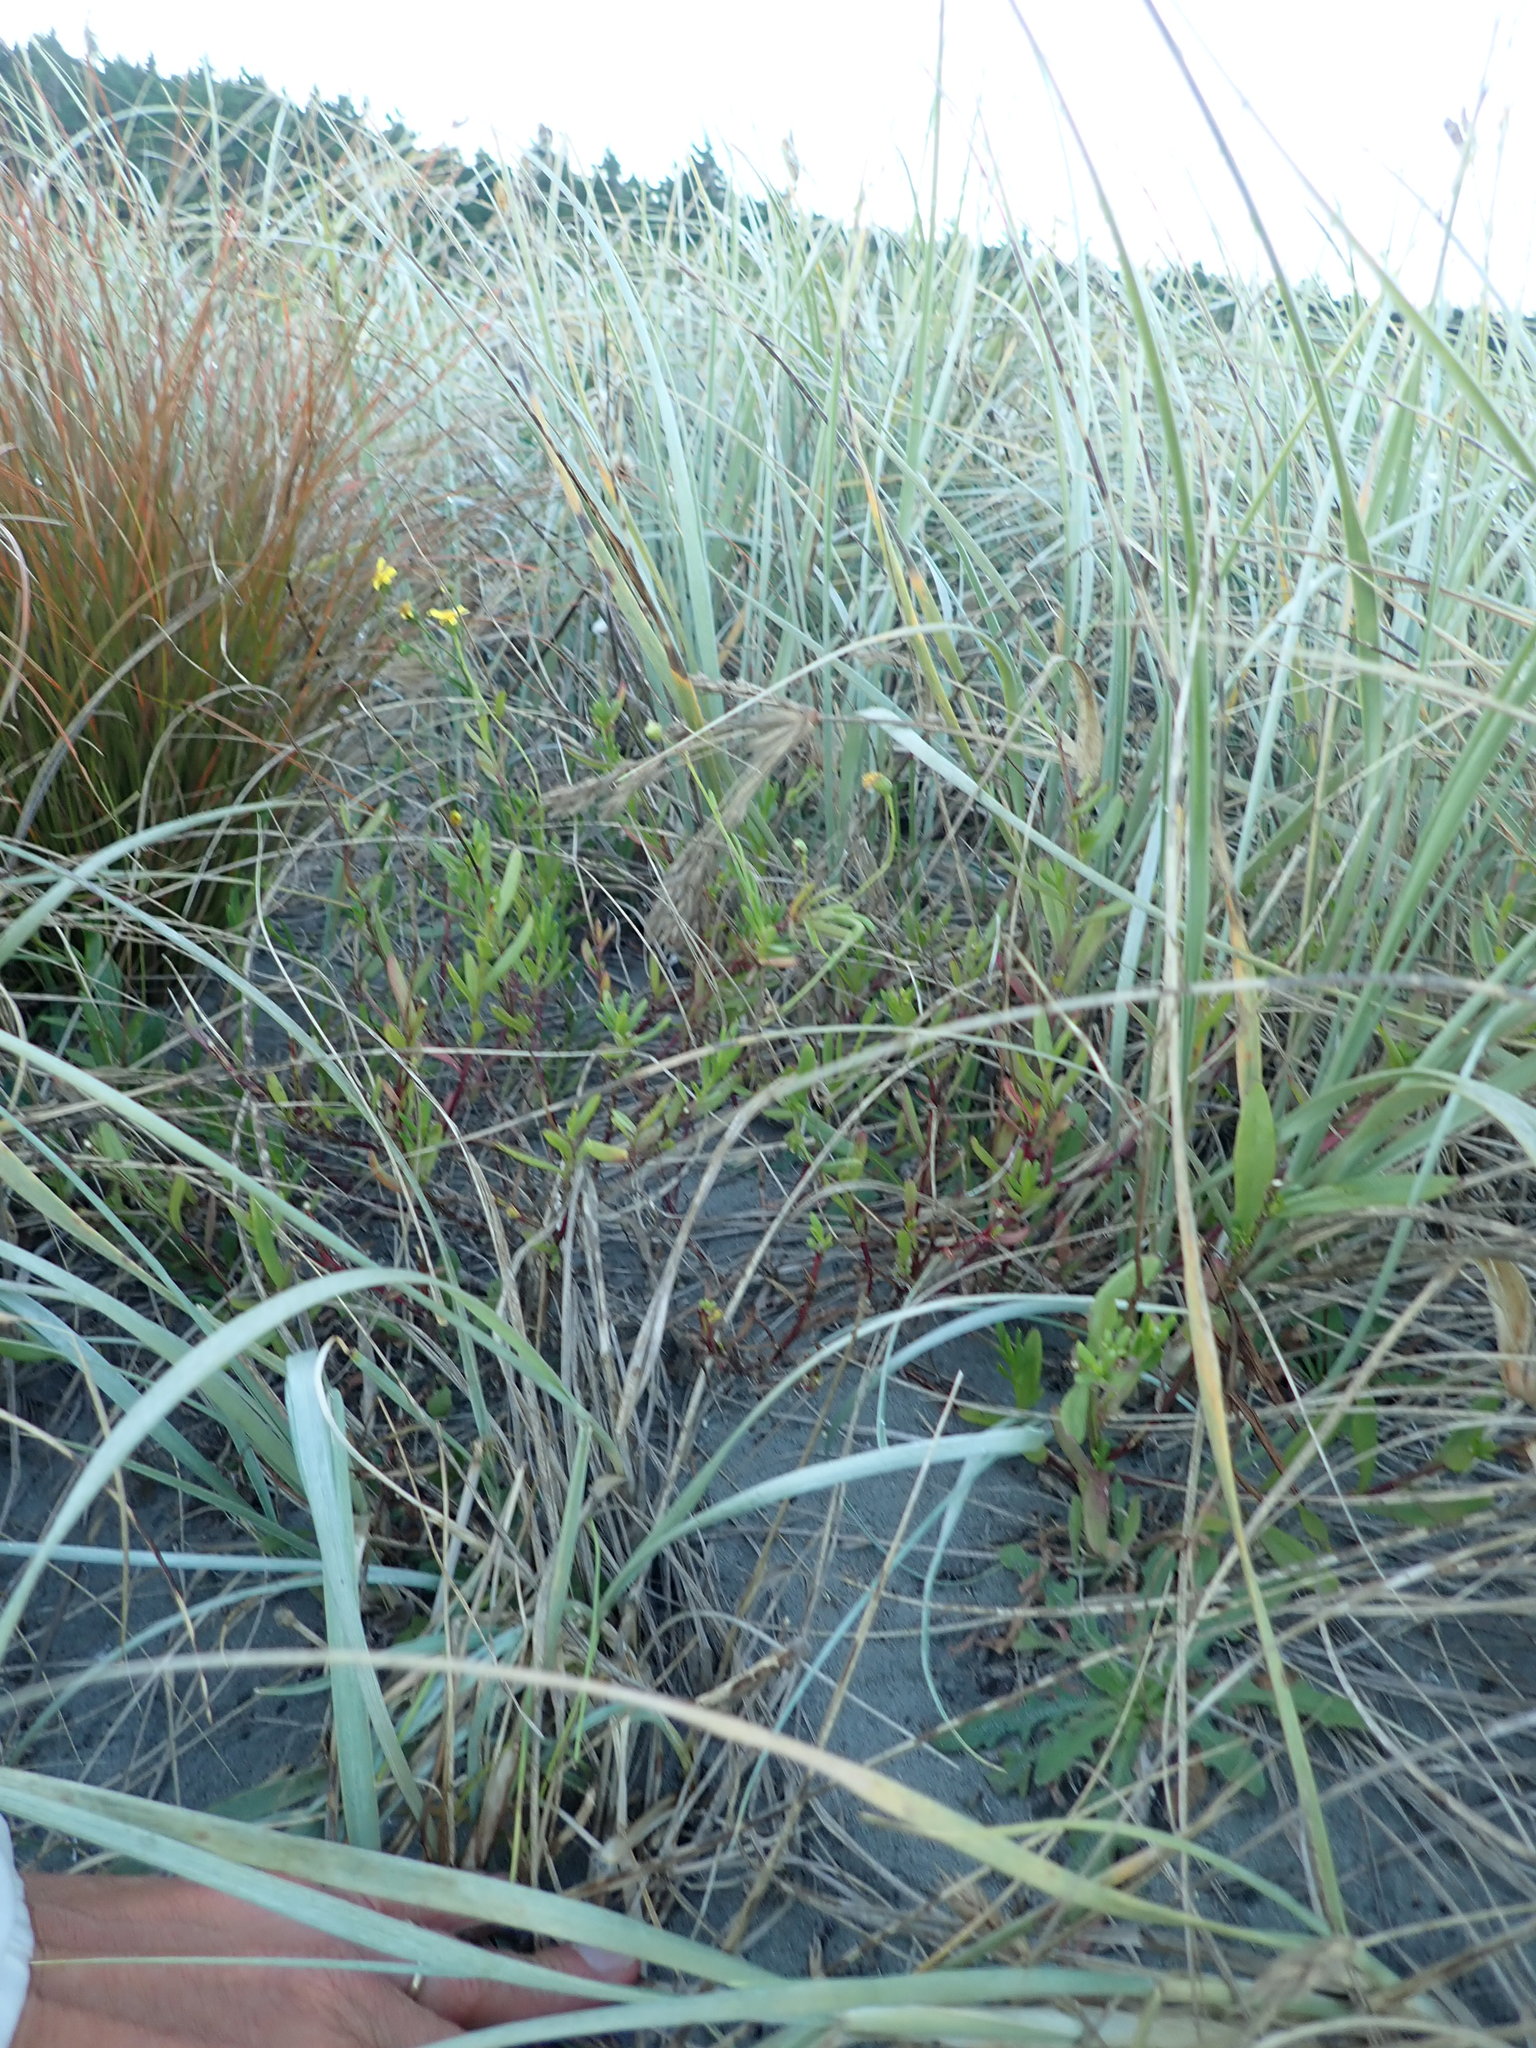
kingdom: Plantae
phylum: Tracheophyta
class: Magnoliopsida
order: Asterales
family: Asteraceae
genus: Senecio
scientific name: Senecio skirrhodon
